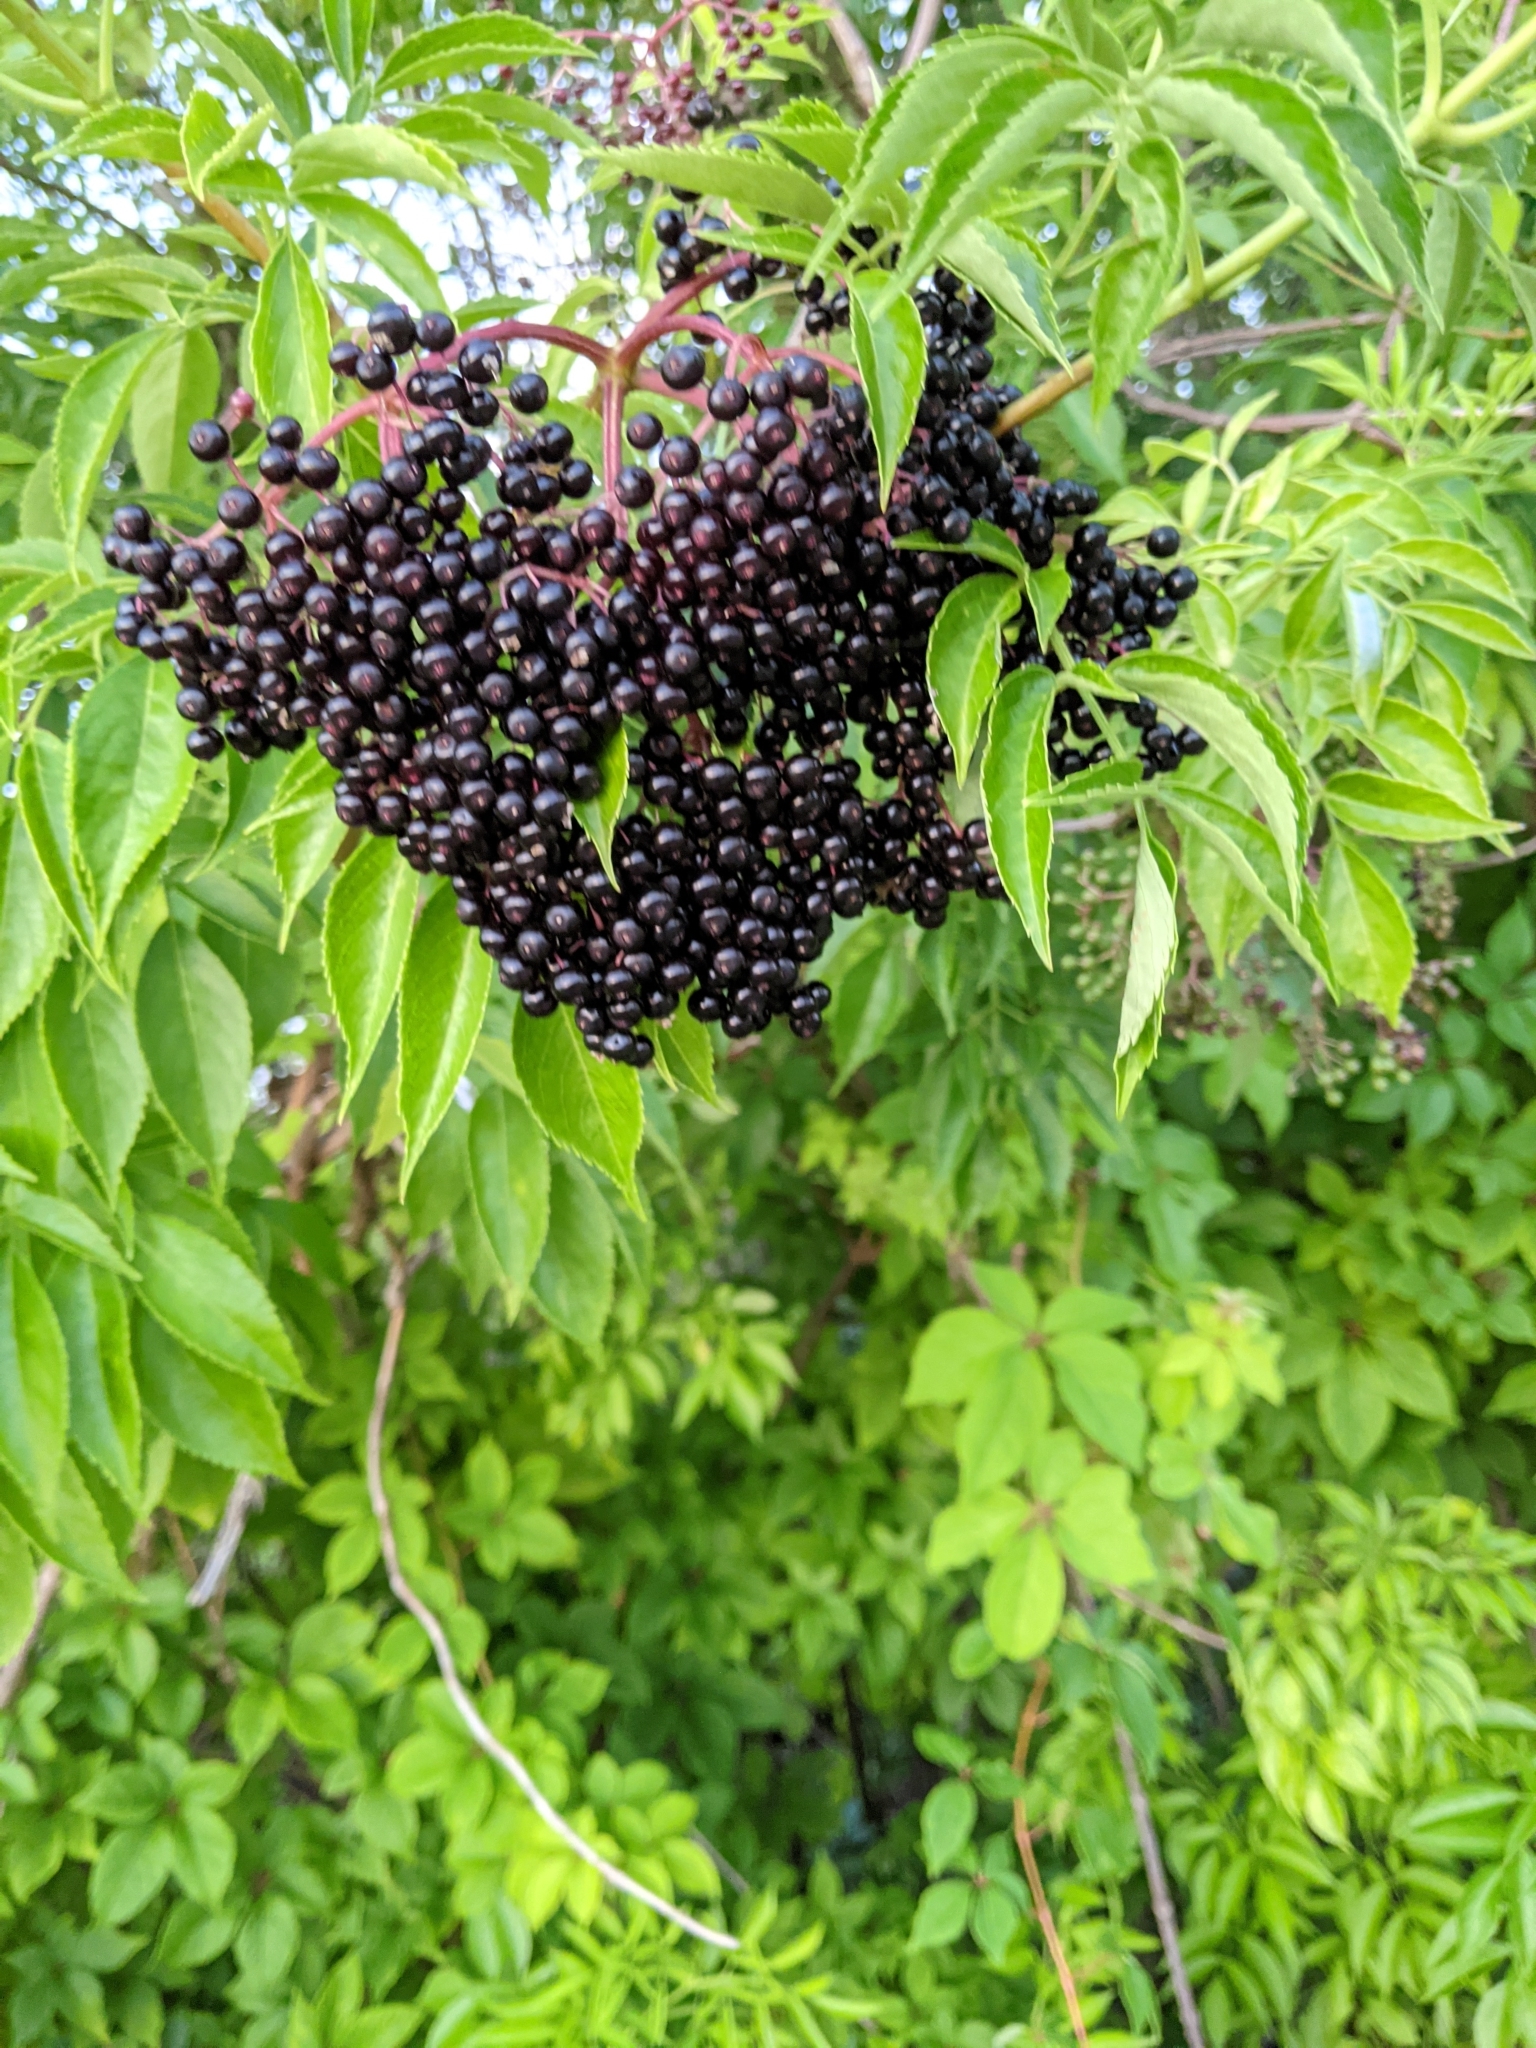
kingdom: Plantae
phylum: Tracheophyta
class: Magnoliopsida
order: Dipsacales
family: Viburnaceae
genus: Sambucus
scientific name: Sambucus canadensis
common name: American elder
